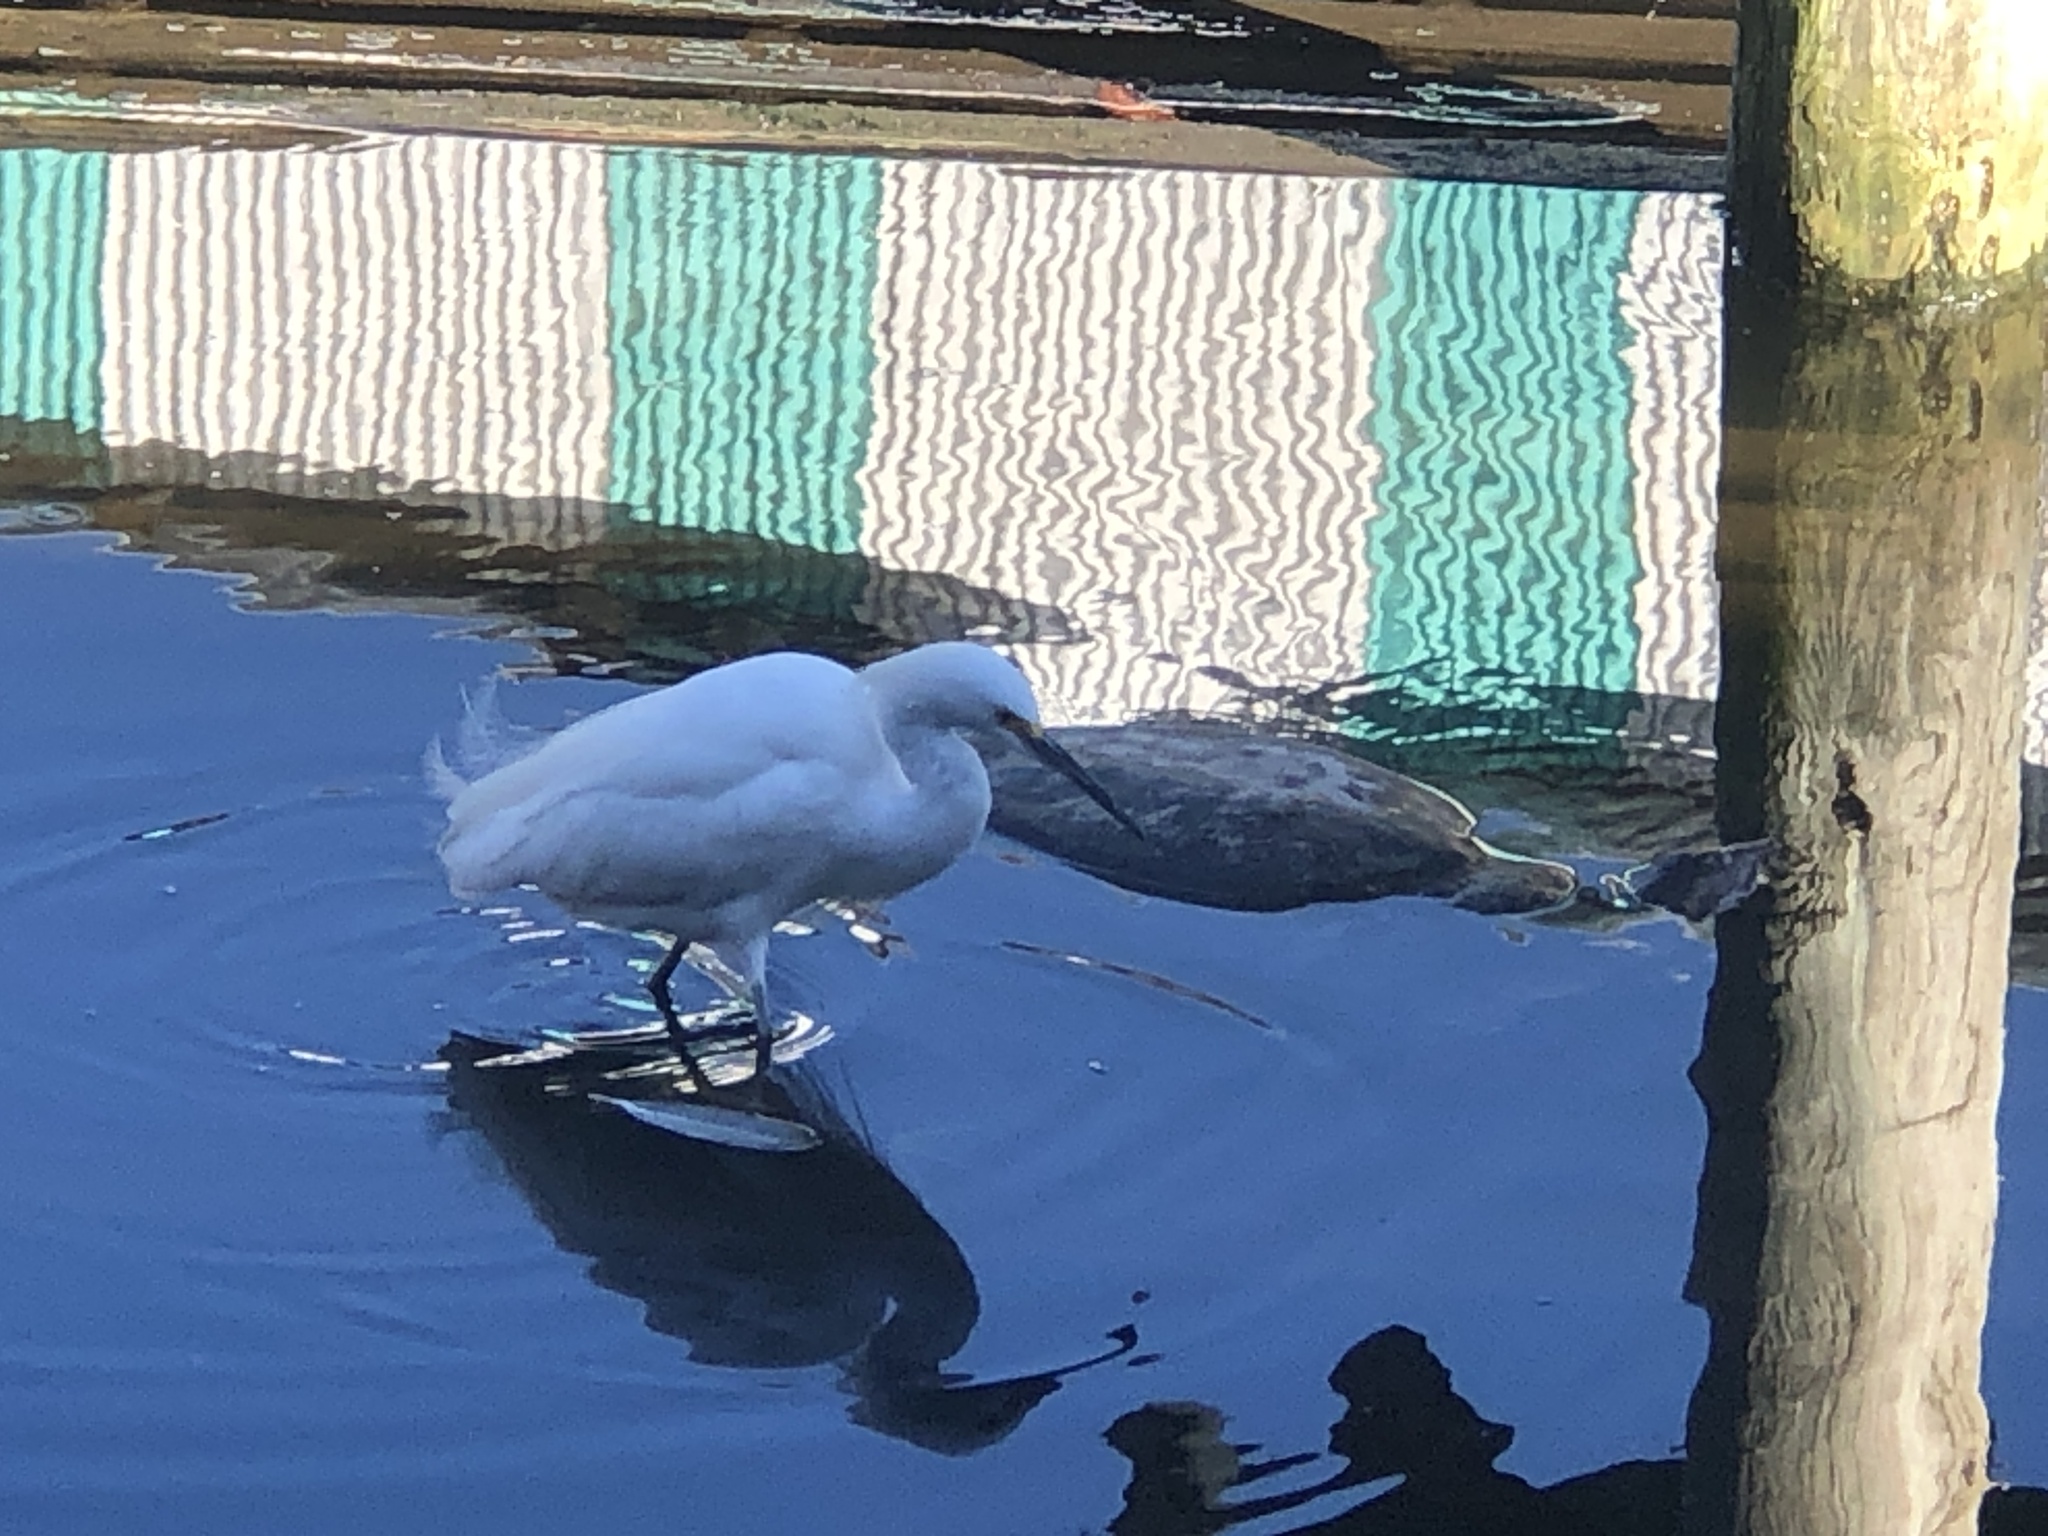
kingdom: Animalia
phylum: Chordata
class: Aves
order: Pelecaniformes
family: Ardeidae
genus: Egretta
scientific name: Egretta thula
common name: Snowy egret
